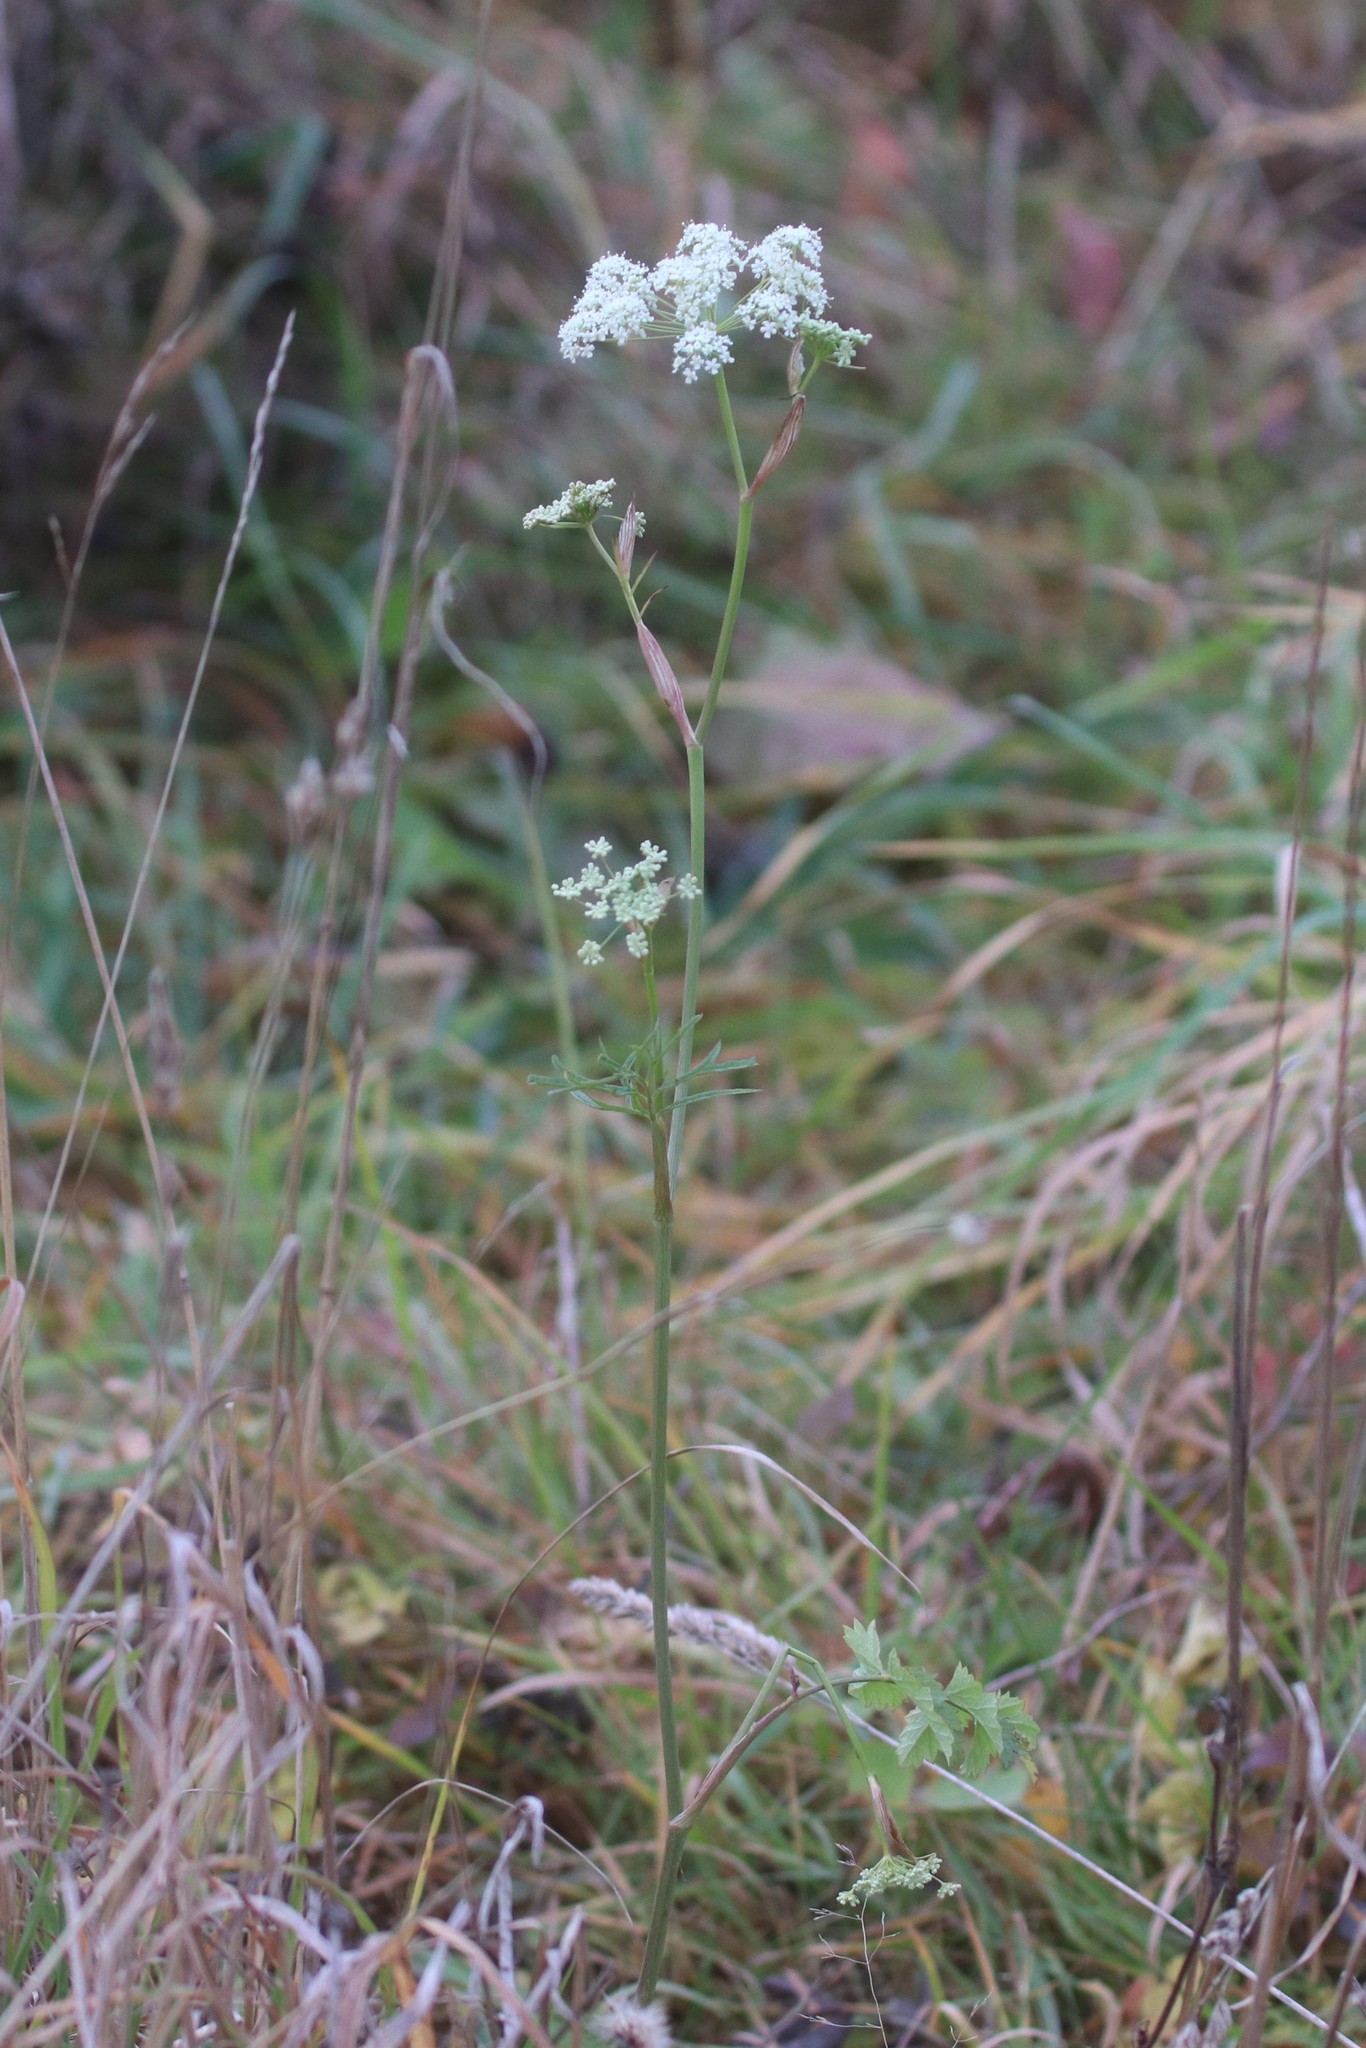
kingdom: Plantae
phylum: Tracheophyta
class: Magnoliopsida
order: Apiales
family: Apiaceae
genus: Pimpinella
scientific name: Pimpinella saxifraga
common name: Burnet-saxifrage
